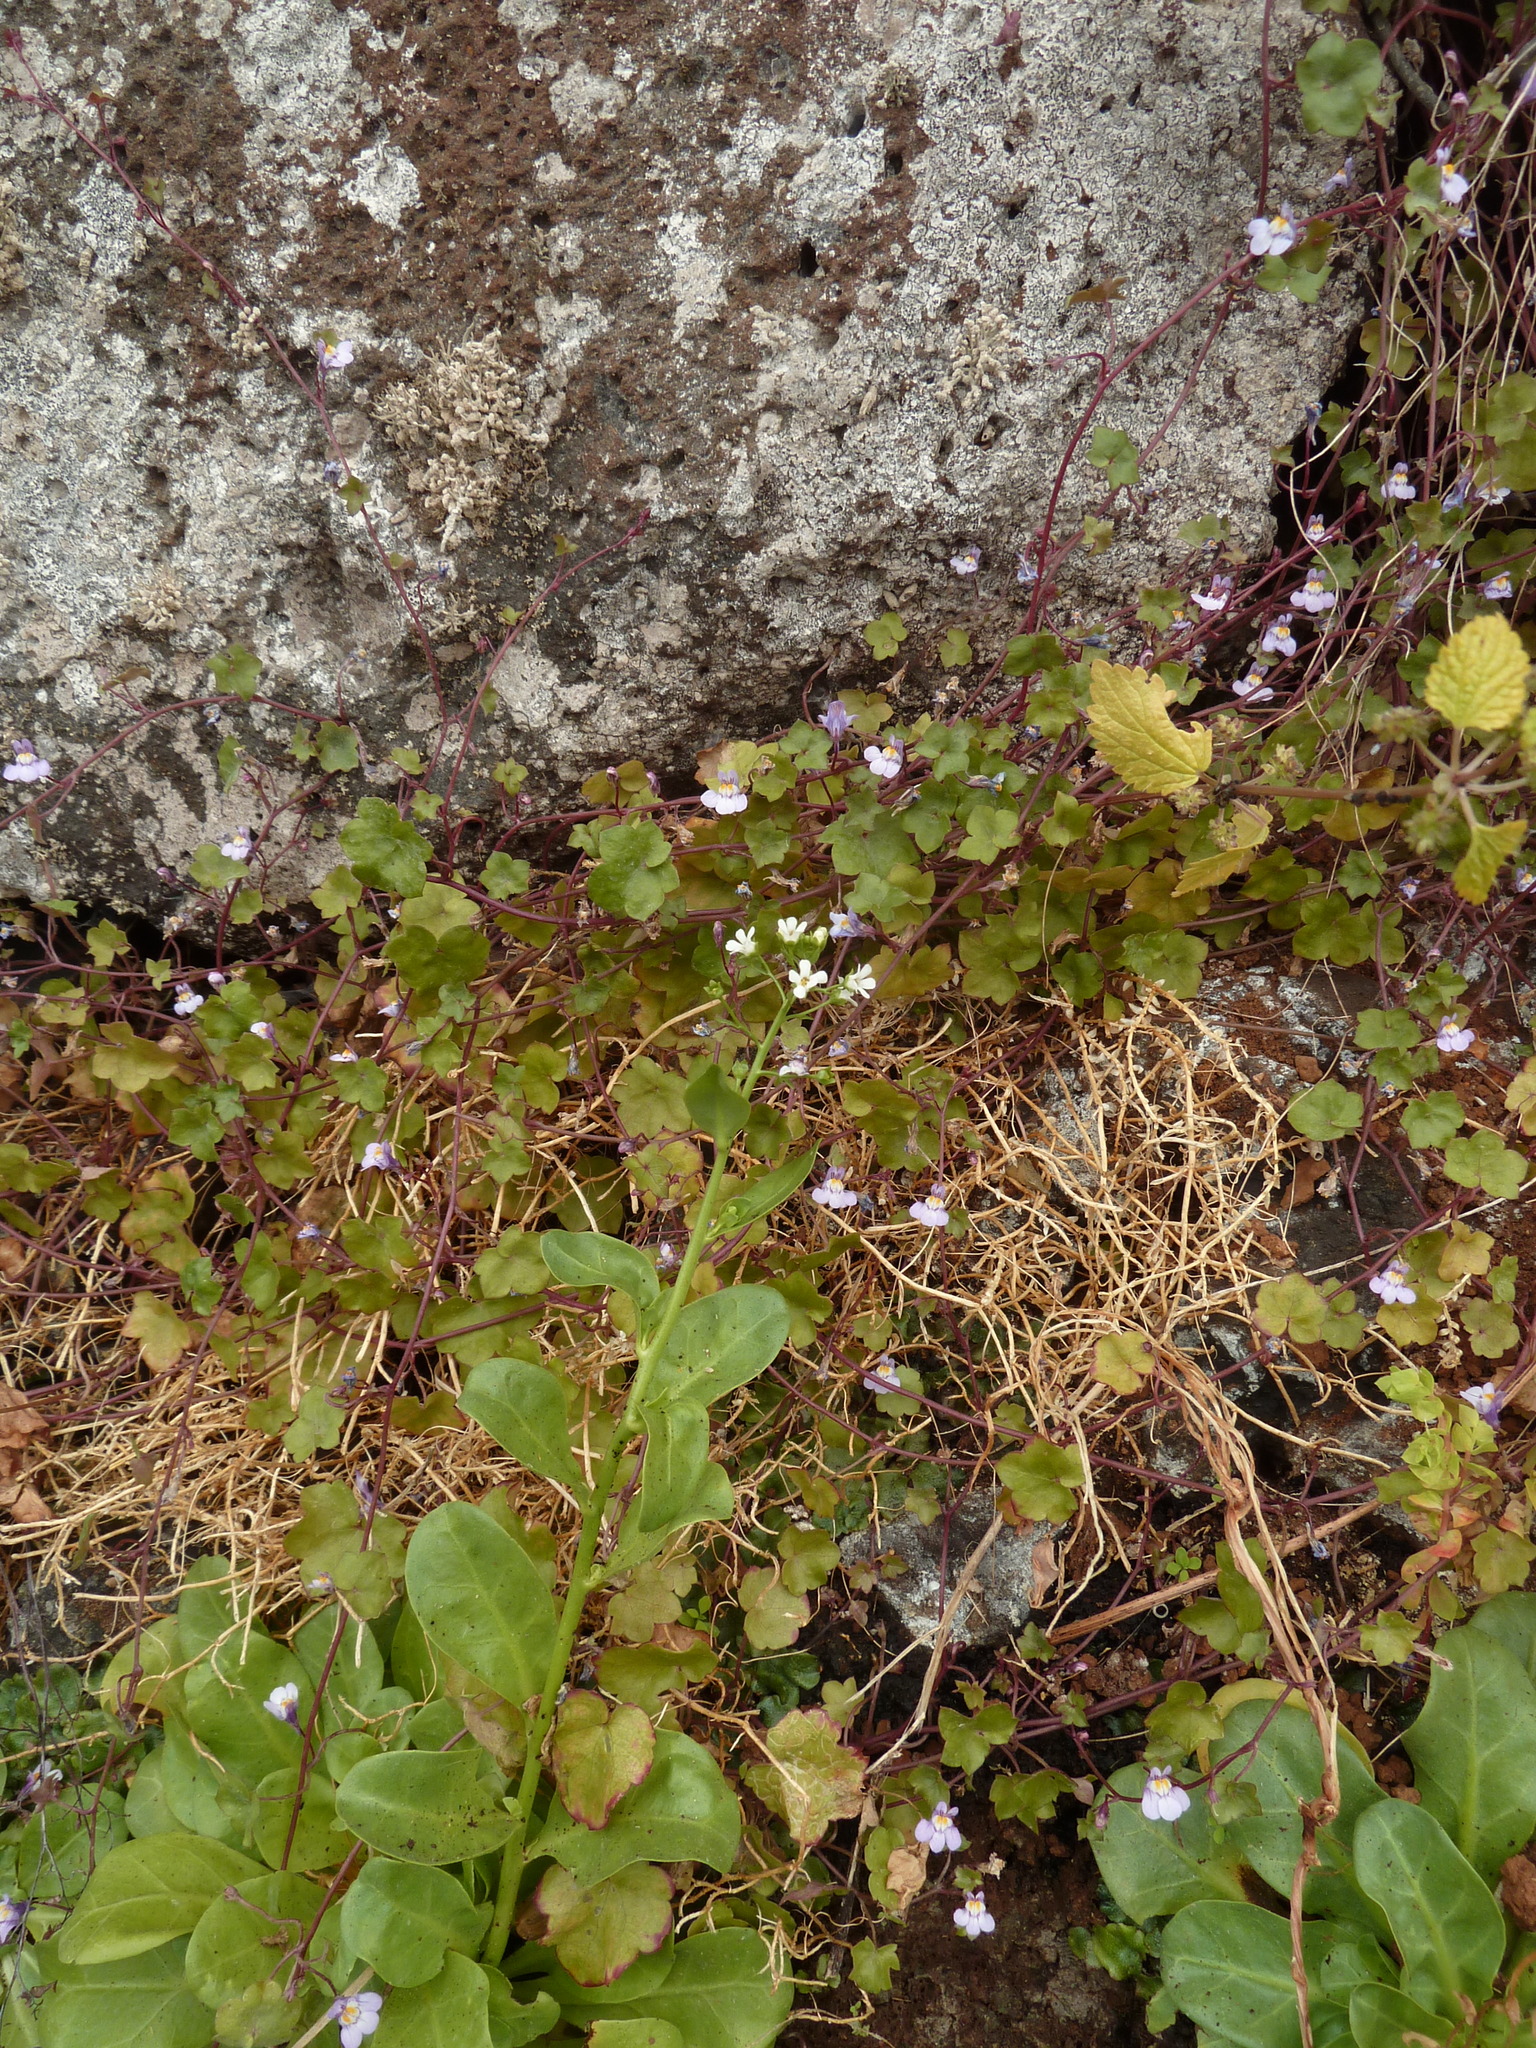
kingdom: Plantae
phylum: Tracheophyta
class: Magnoliopsida
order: Ericales
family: Primulaceae
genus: Samolus
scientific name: Samolus valerandi
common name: Brookweed
